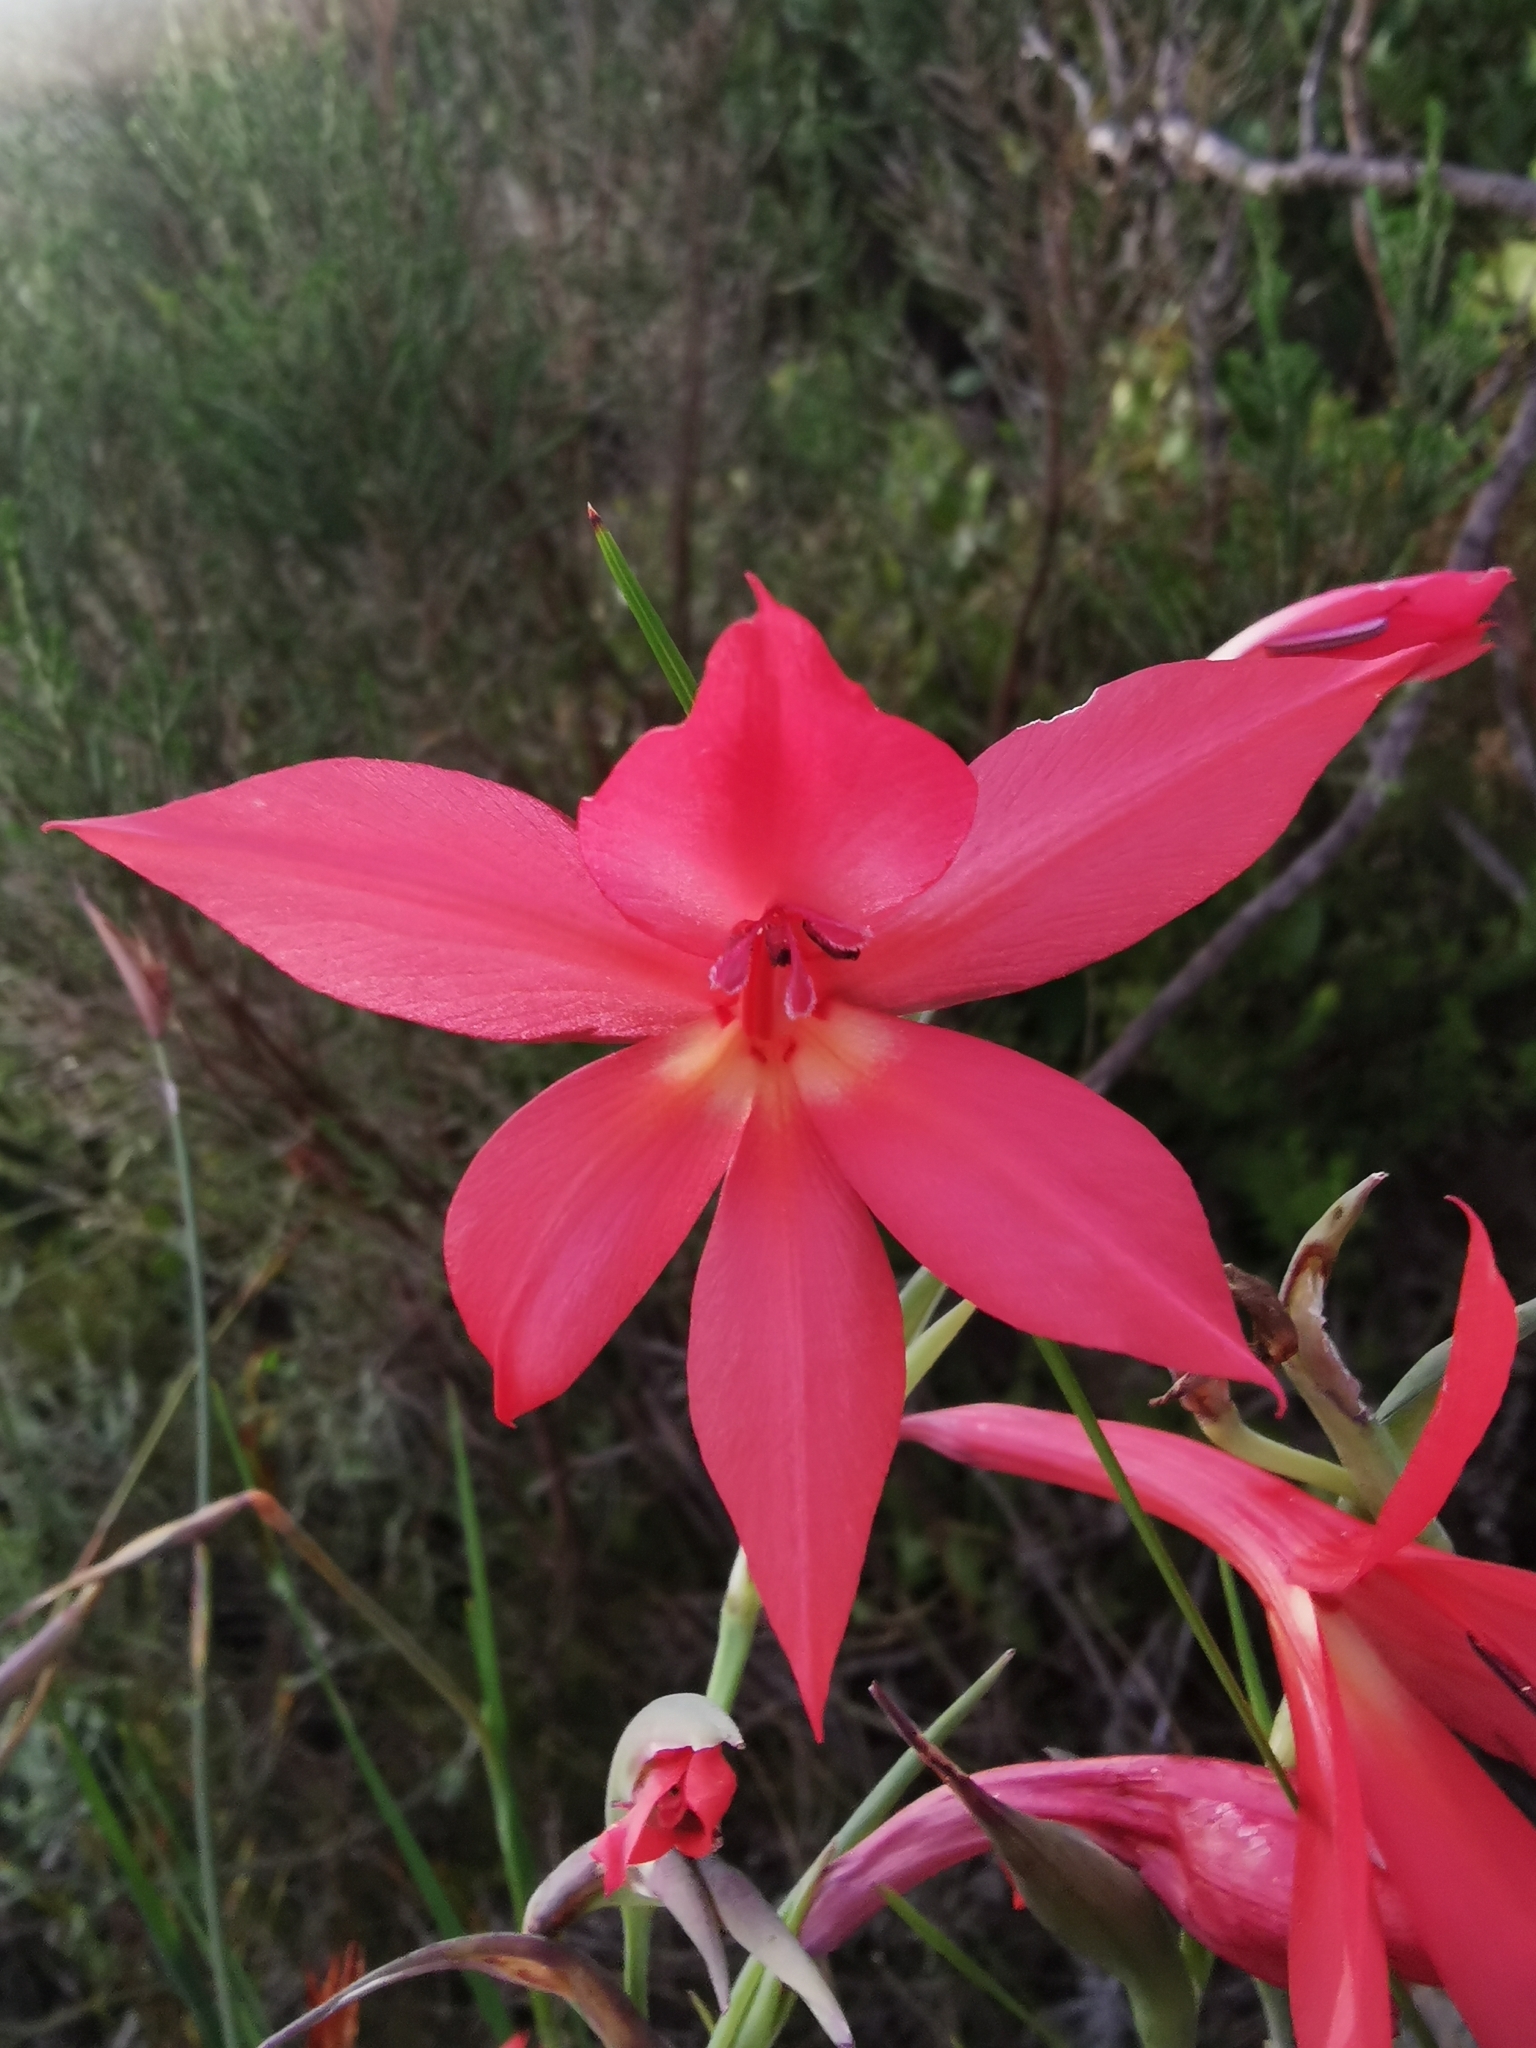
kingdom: Plantae
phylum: Tracheophyta
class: Liliopsida
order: Asparagales
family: Iridaceae
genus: Gladiolus
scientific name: Gladiolus priorii
